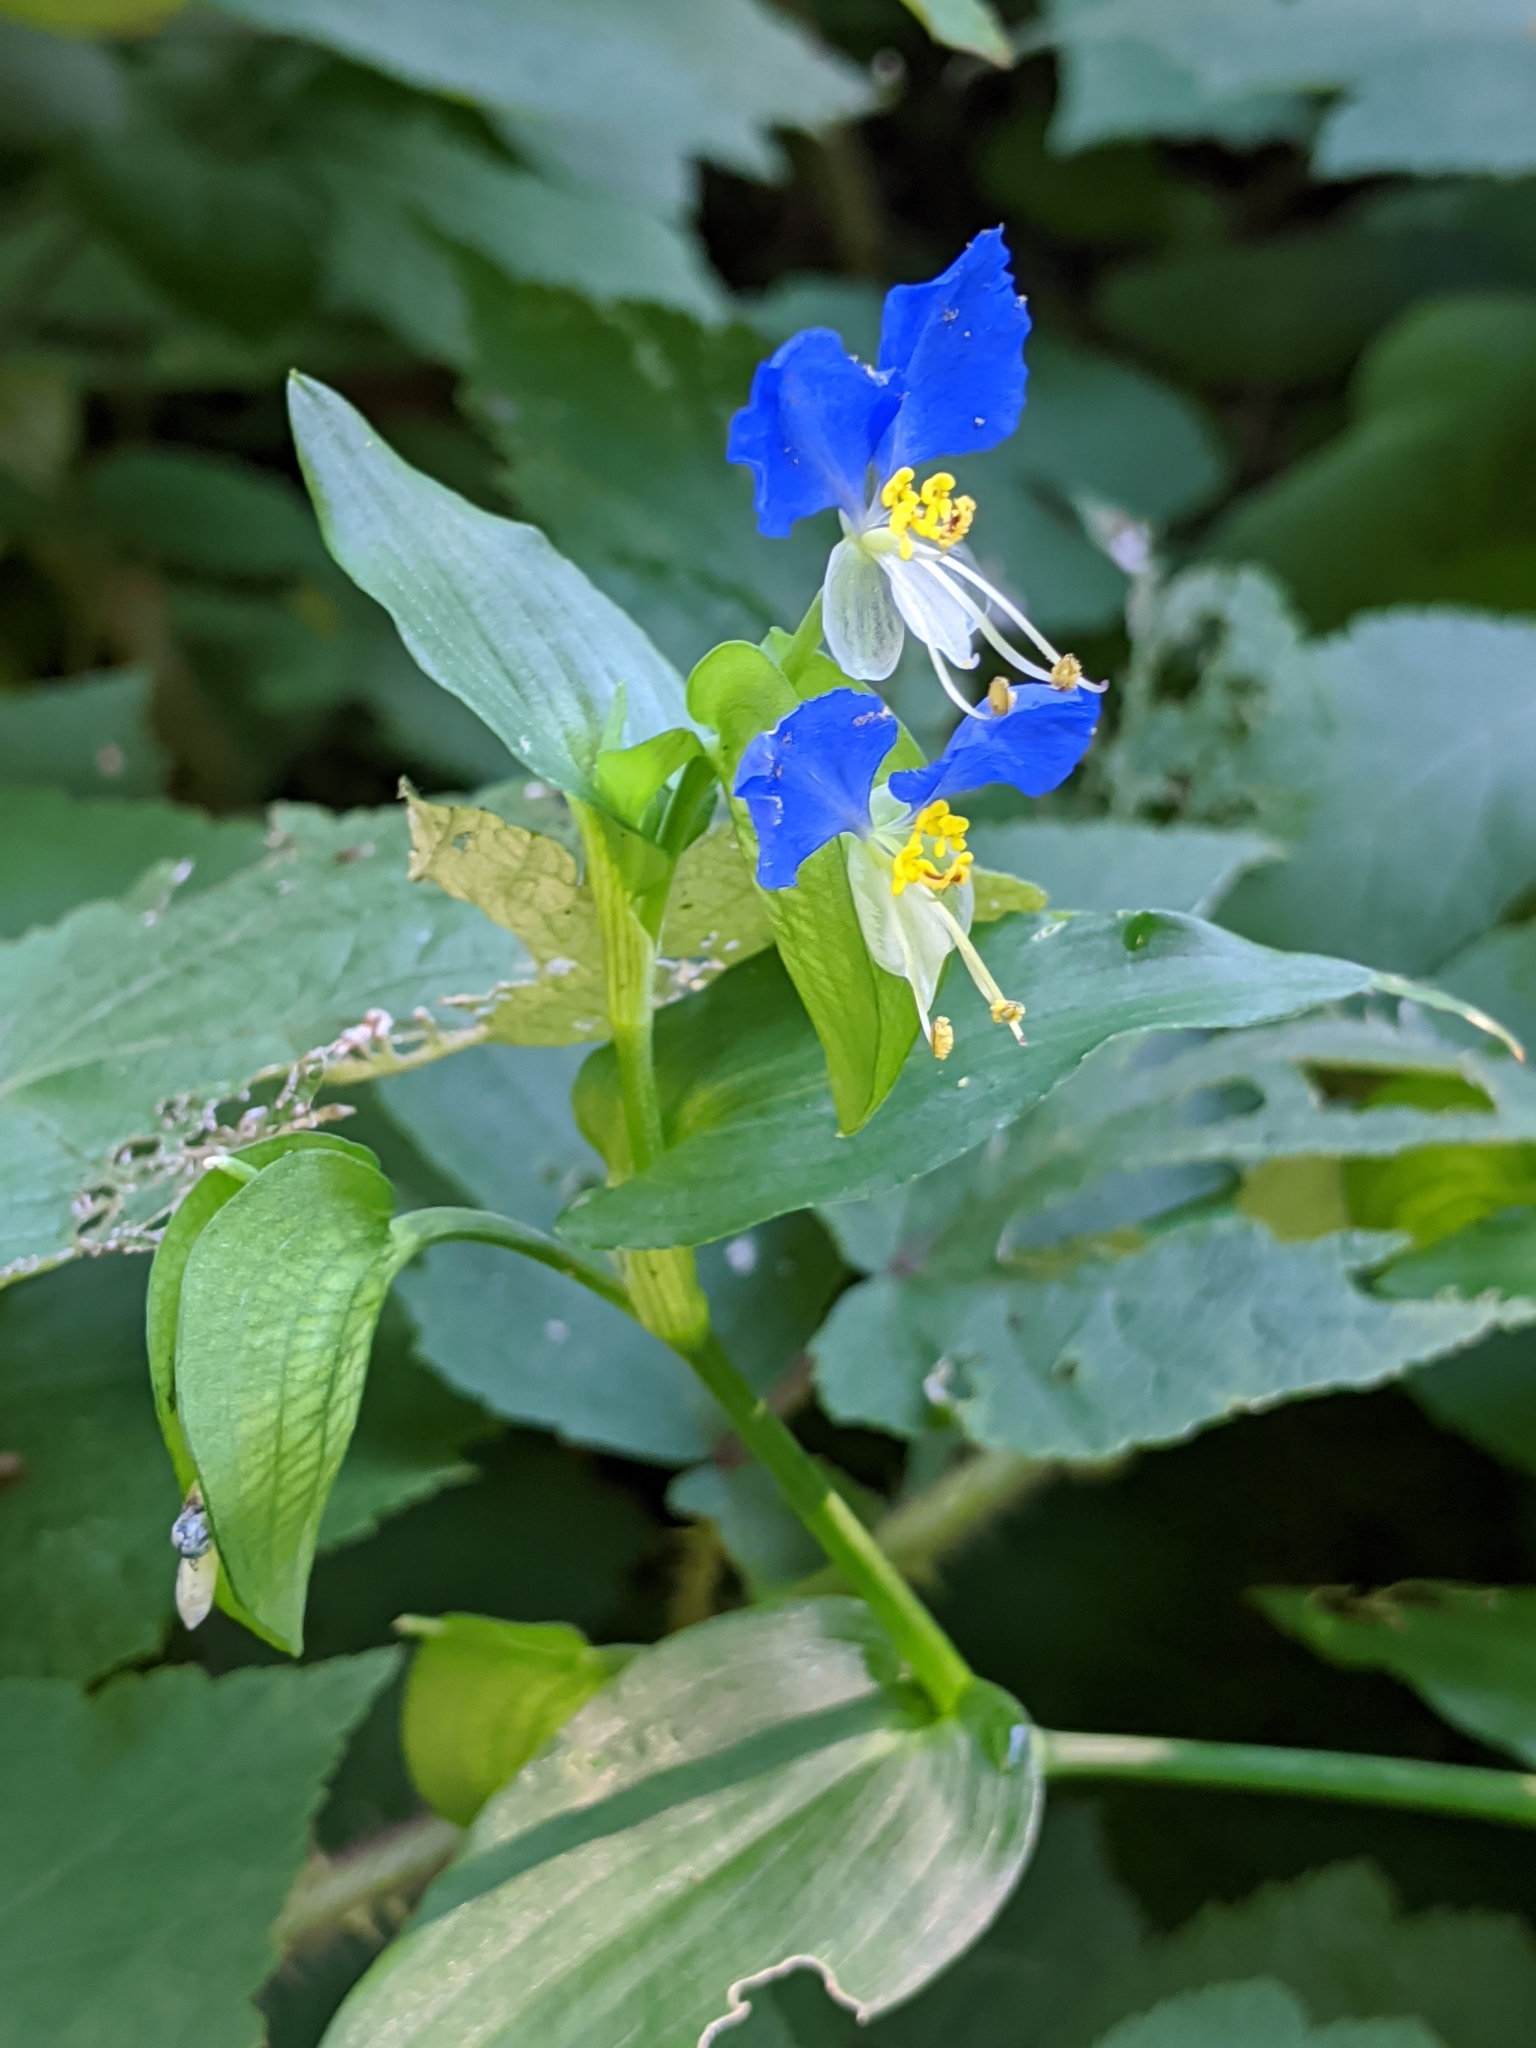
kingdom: Plantae
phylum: Tracheophyta
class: Liliopsida
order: Commelinales
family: Commelinaceae
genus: Commelina
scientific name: Commelina communis
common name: Asiatic dayflower
